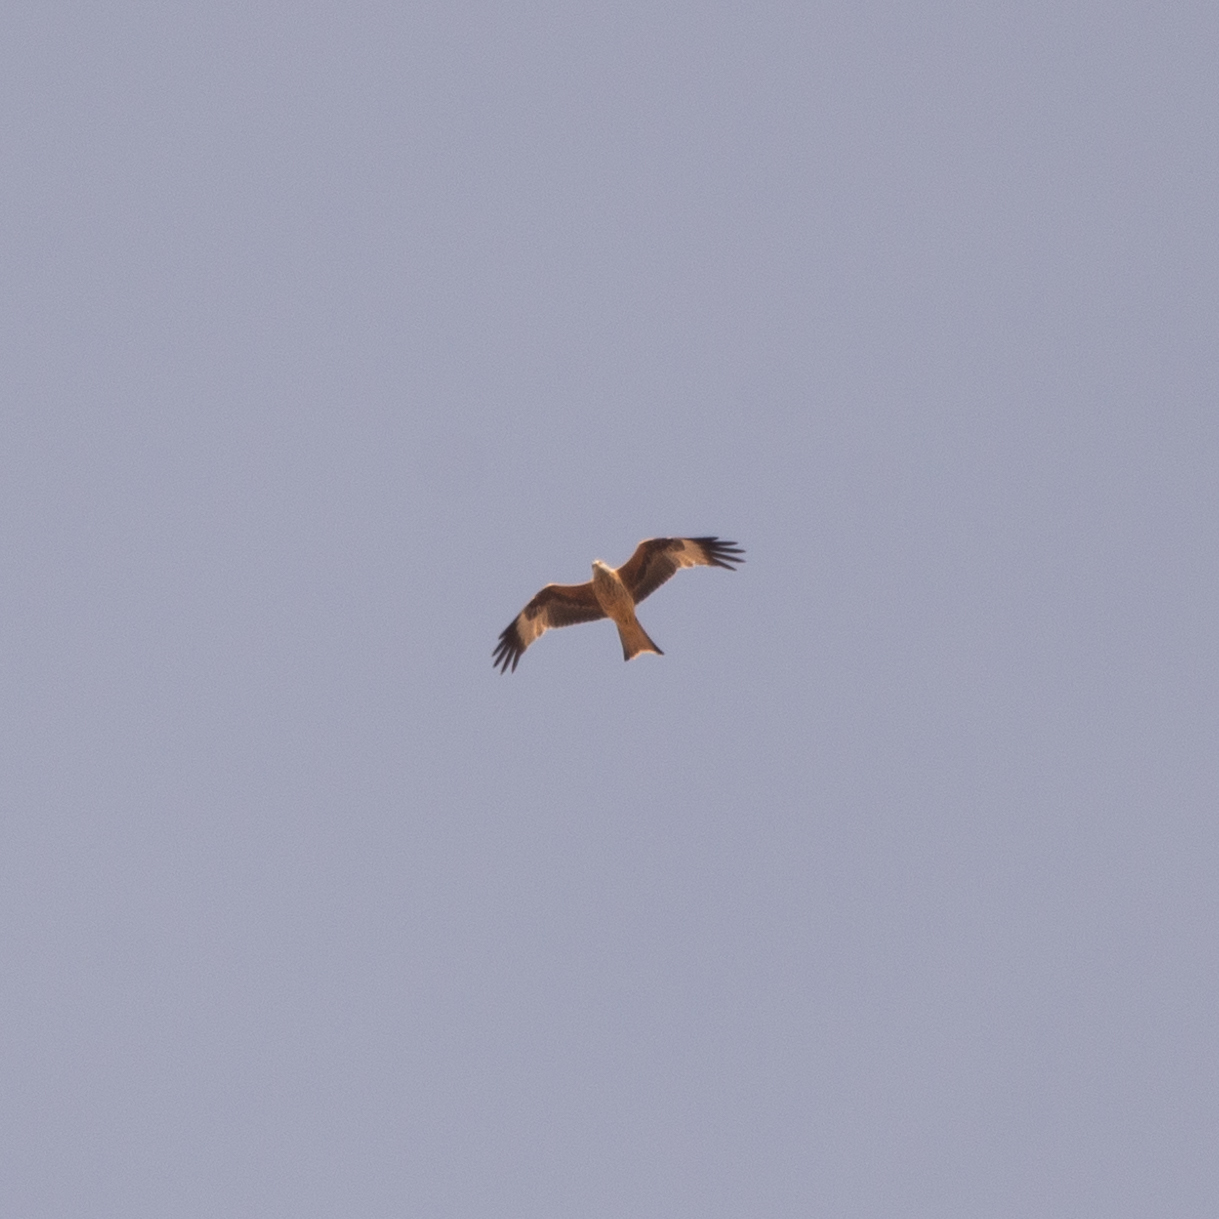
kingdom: Animalia
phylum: Chordata
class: Aves
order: Accipitriformes
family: Accipitridae
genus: Milvus
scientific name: Milvus milvus
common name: Red kite
